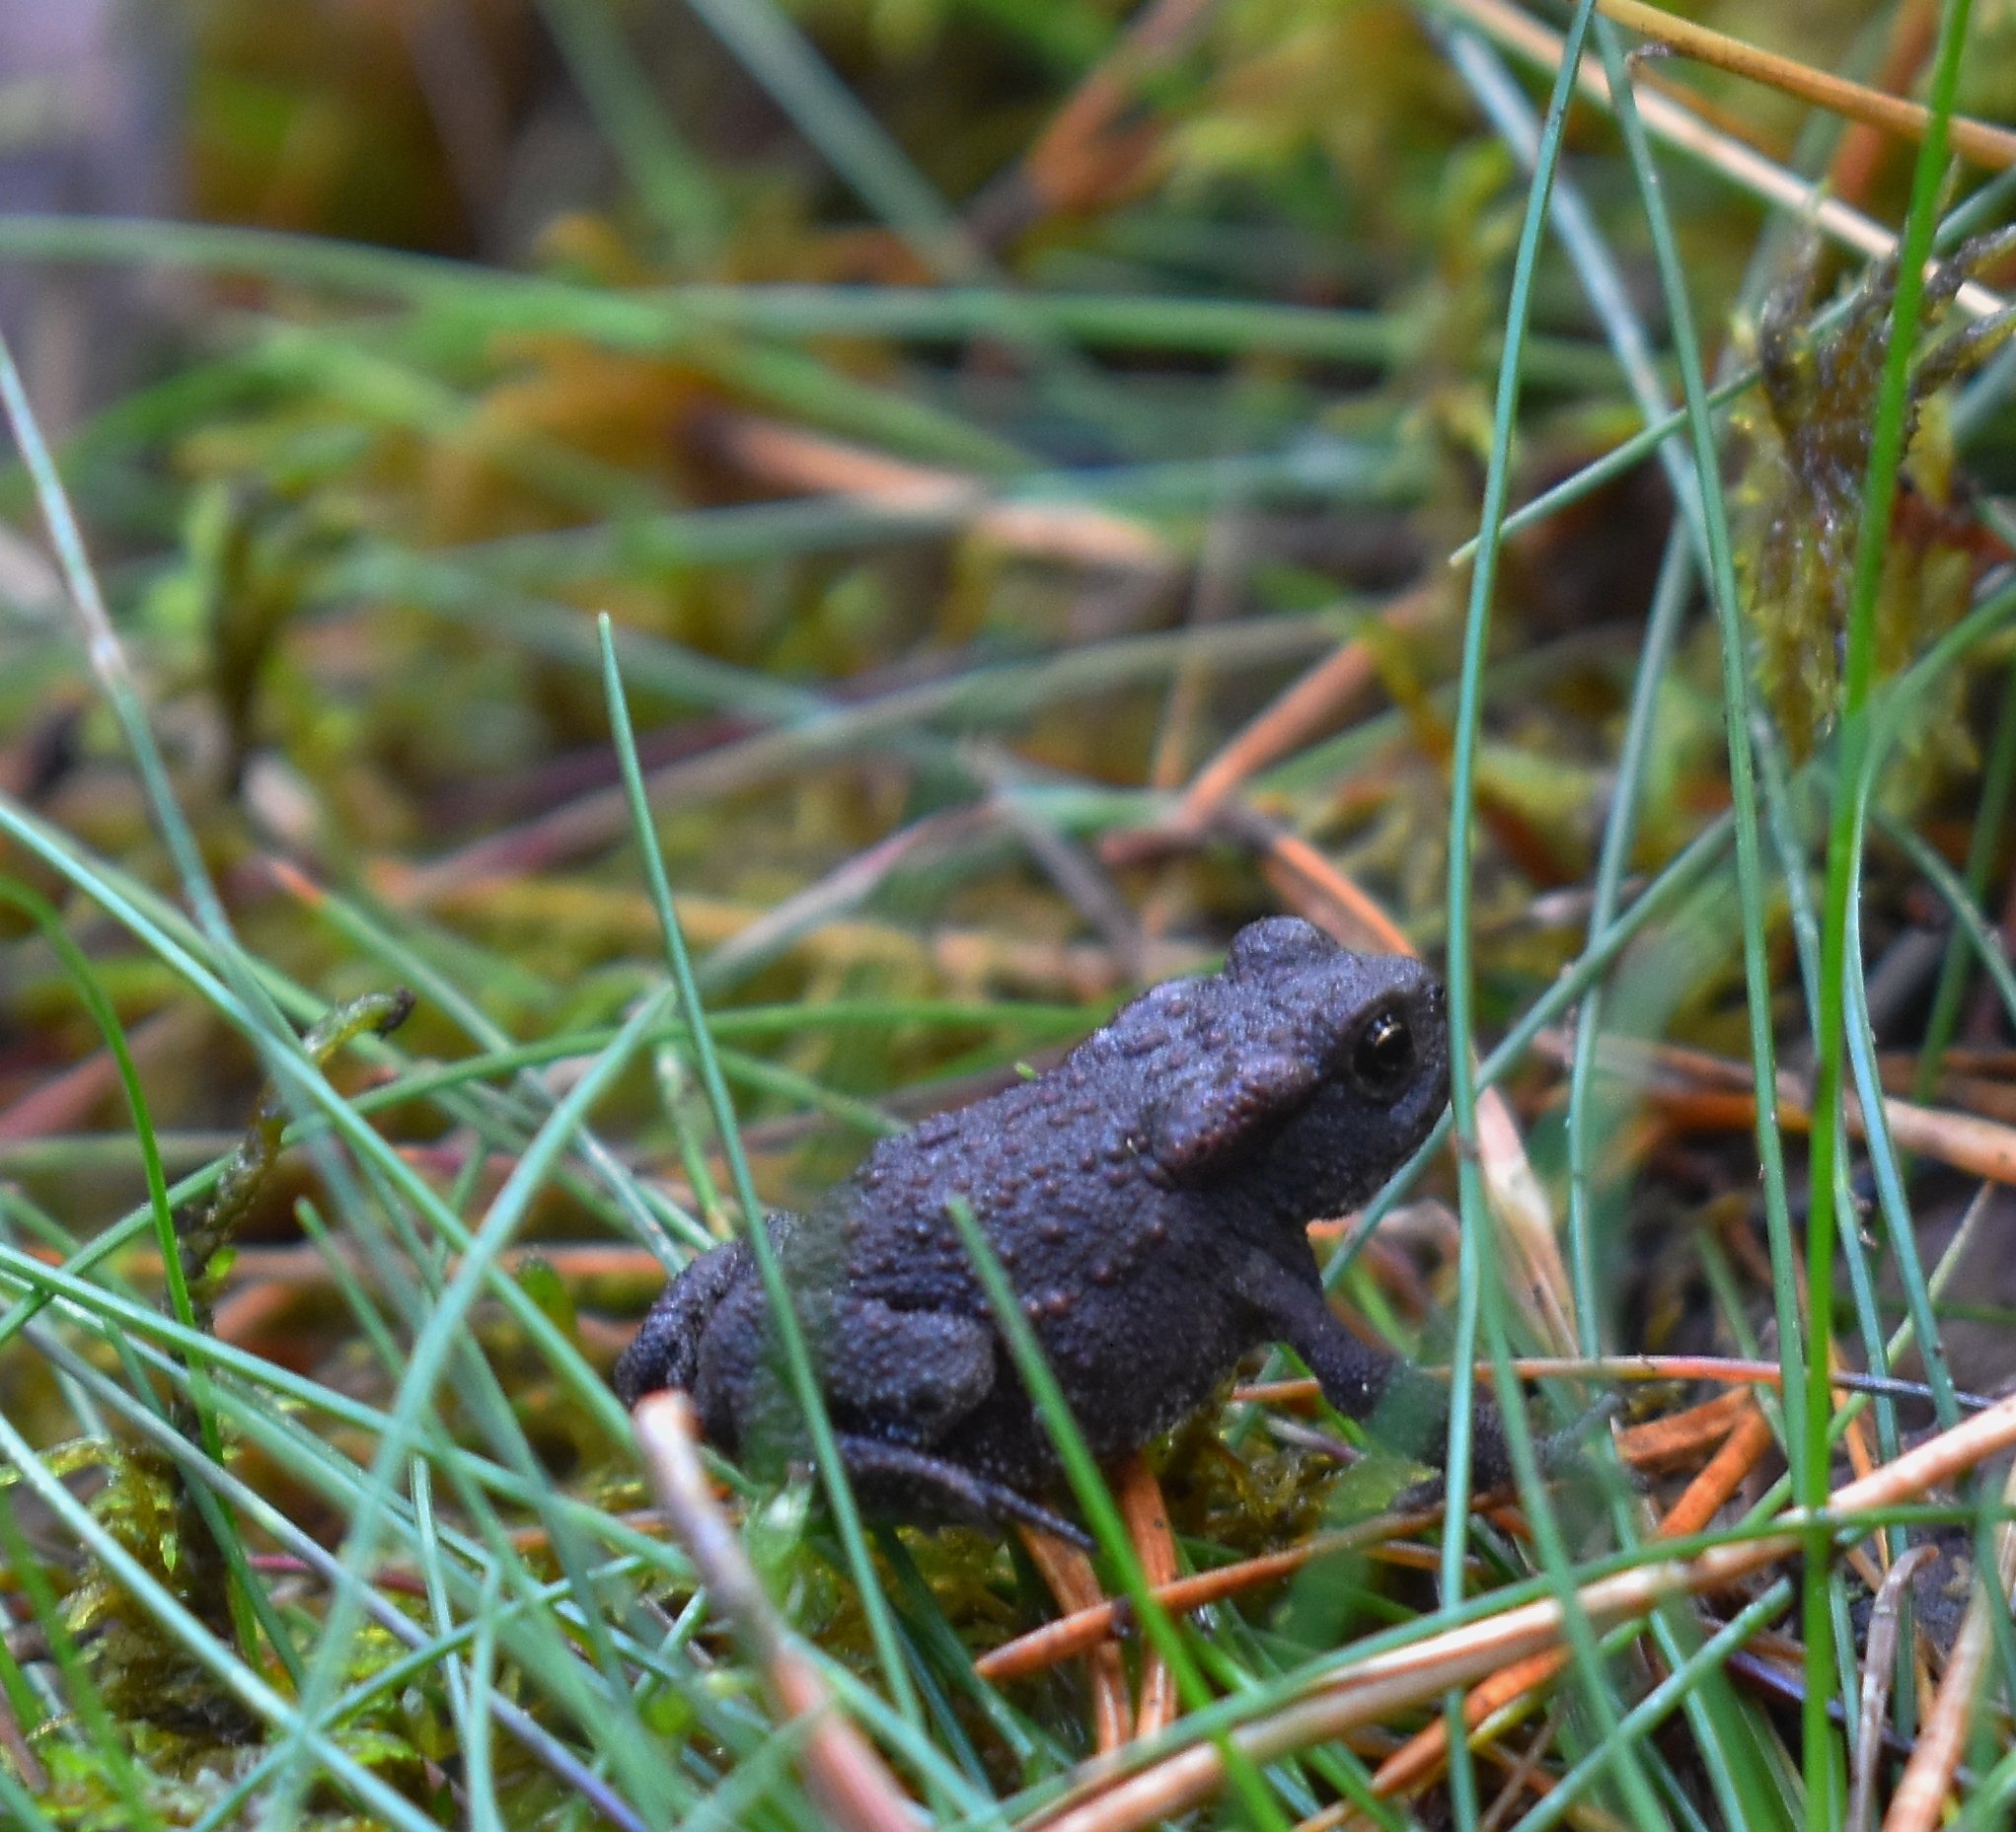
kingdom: Animalia
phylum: Chordata
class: Amphibia
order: Anura
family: Bufonidae
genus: Bufo
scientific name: Bufo bufo
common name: Common toad
